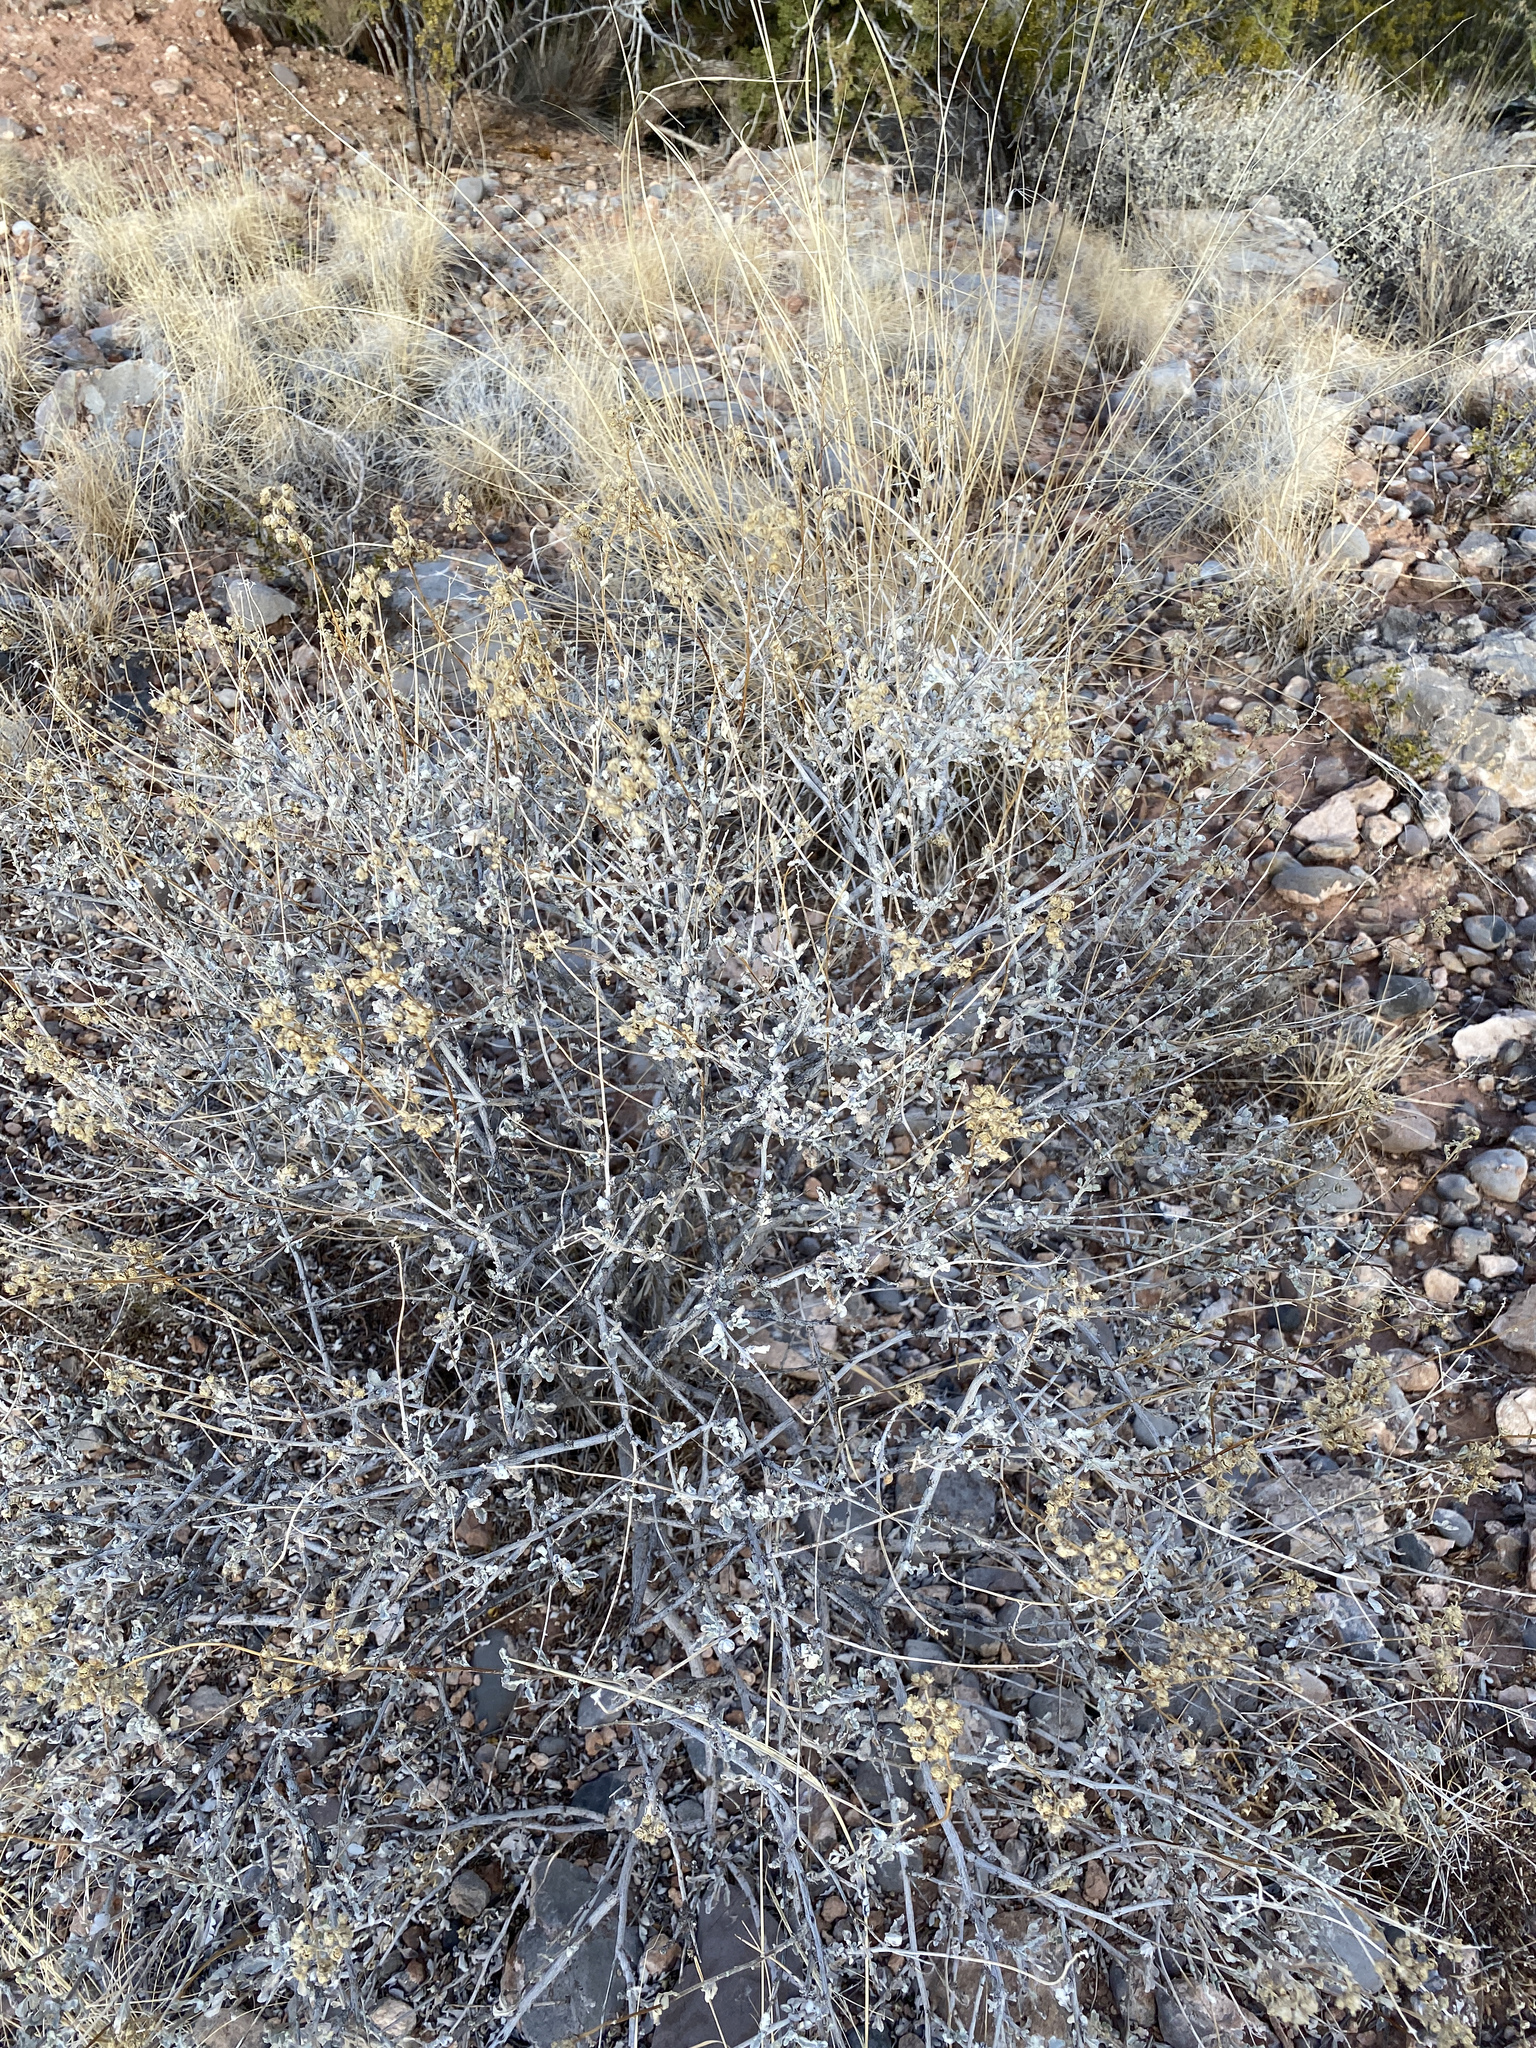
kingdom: Plantae
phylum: Tracheophyta
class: Magnoliopsida
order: Asterales
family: Asteraceae
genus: Parthenium
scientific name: Parthenium incanum
